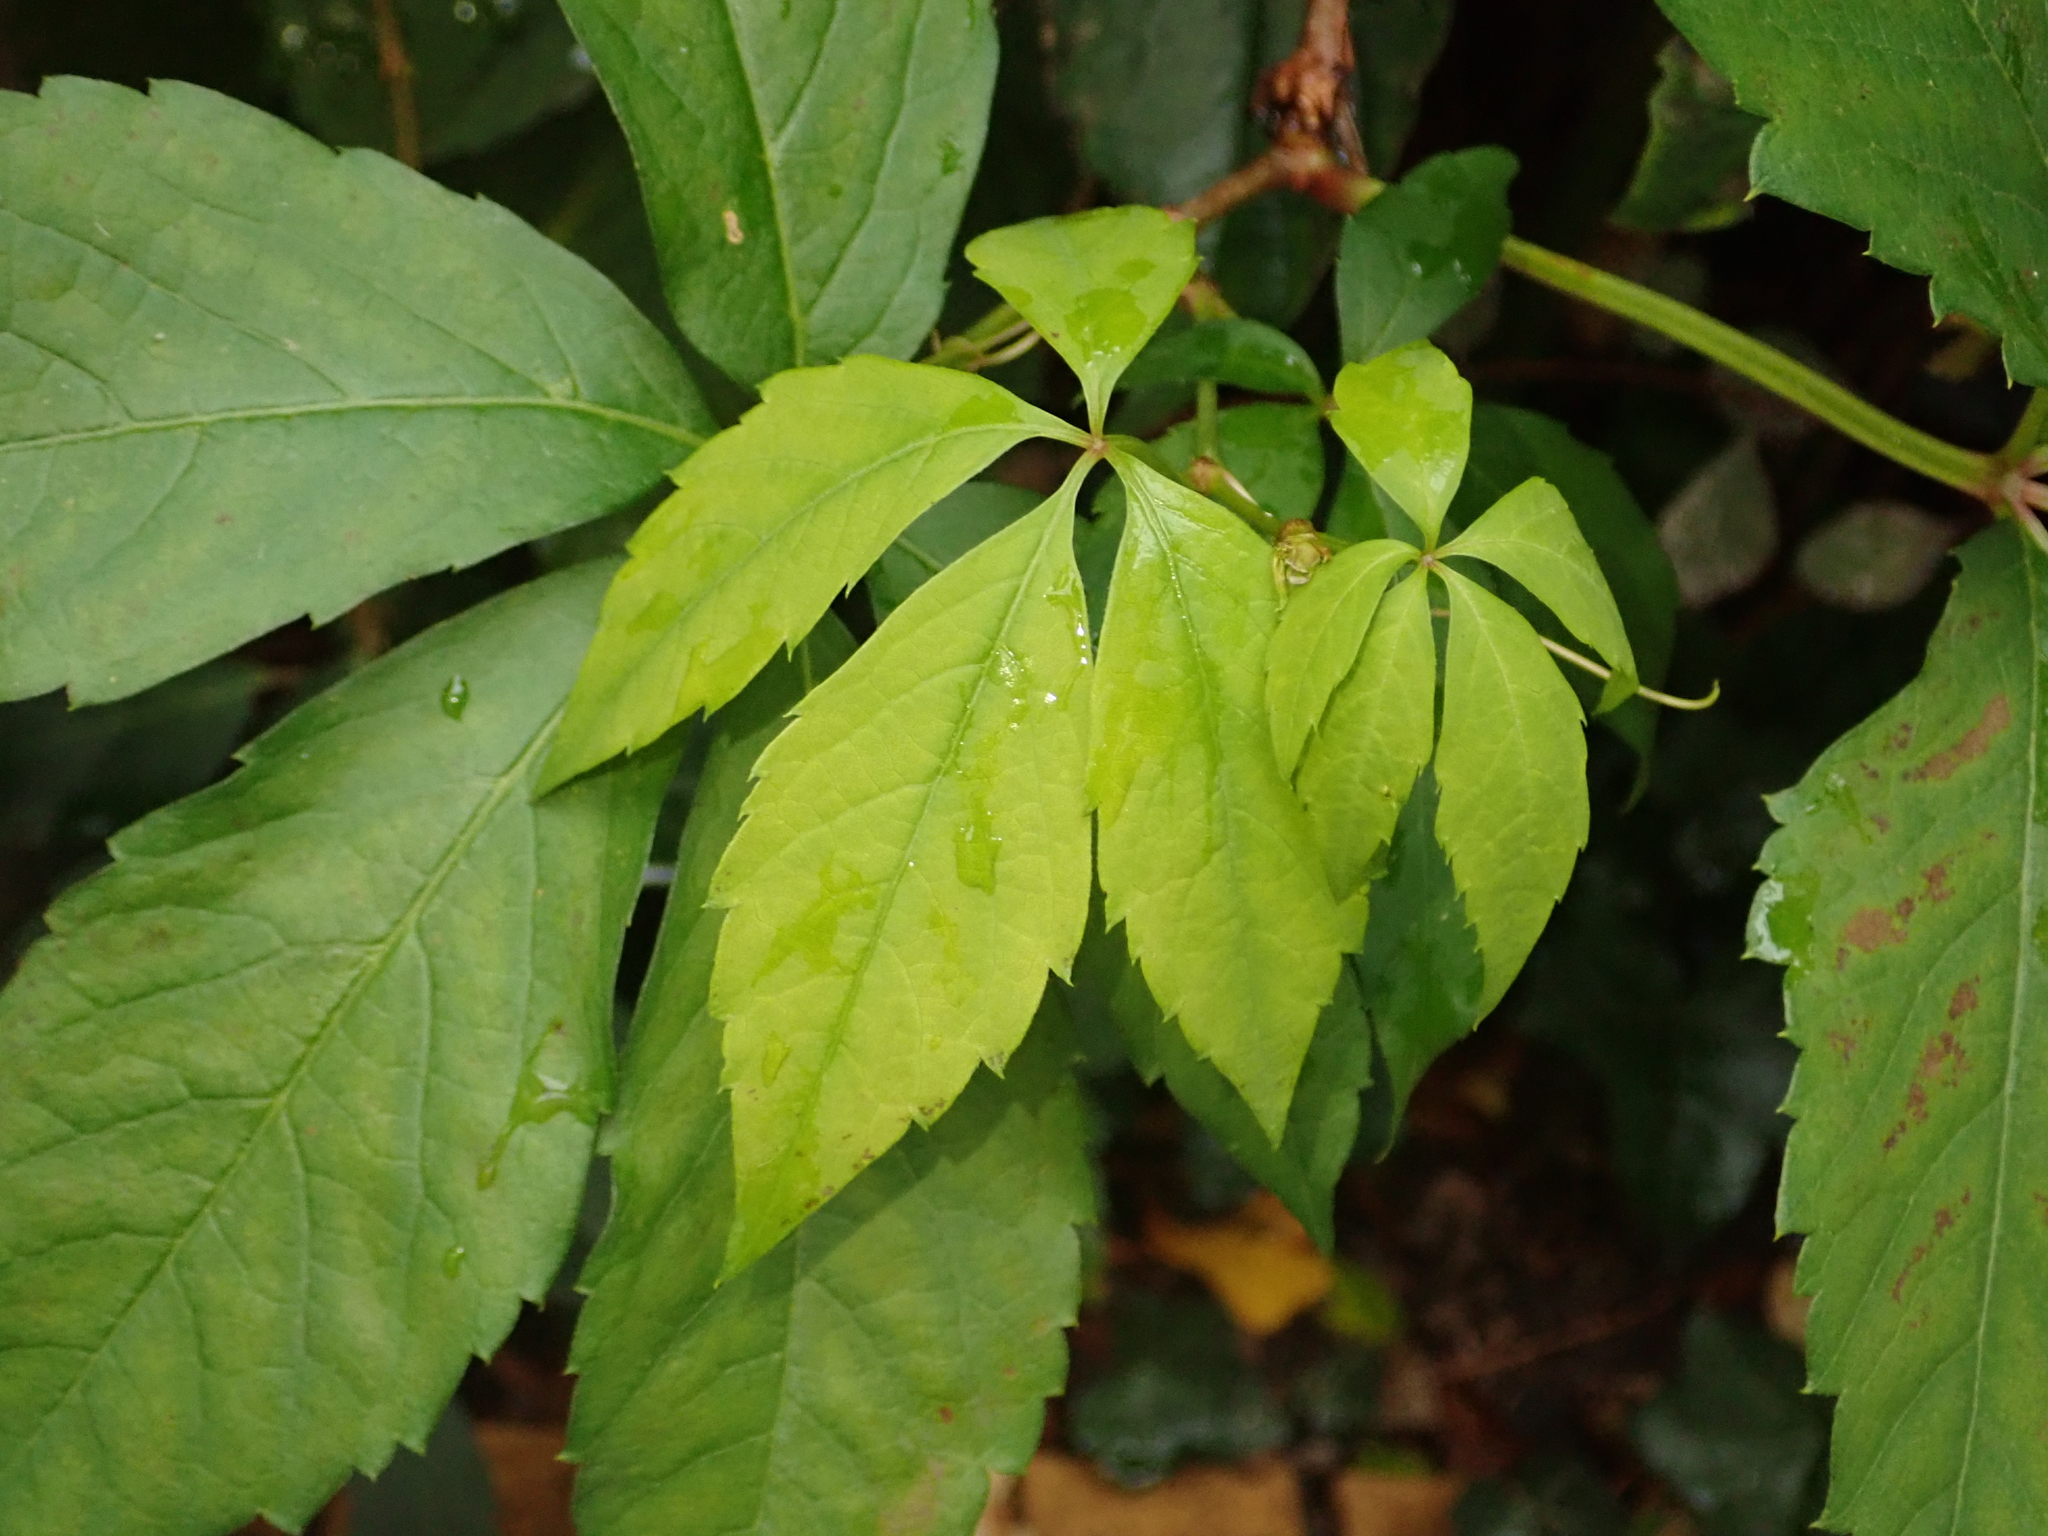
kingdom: Plantae
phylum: Tracheophyta
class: Magnoliopsida
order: Vitales
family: Vitaceae
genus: Parthenocissus
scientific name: Parthenocissus quinquefolia
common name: Virginia-creeper
